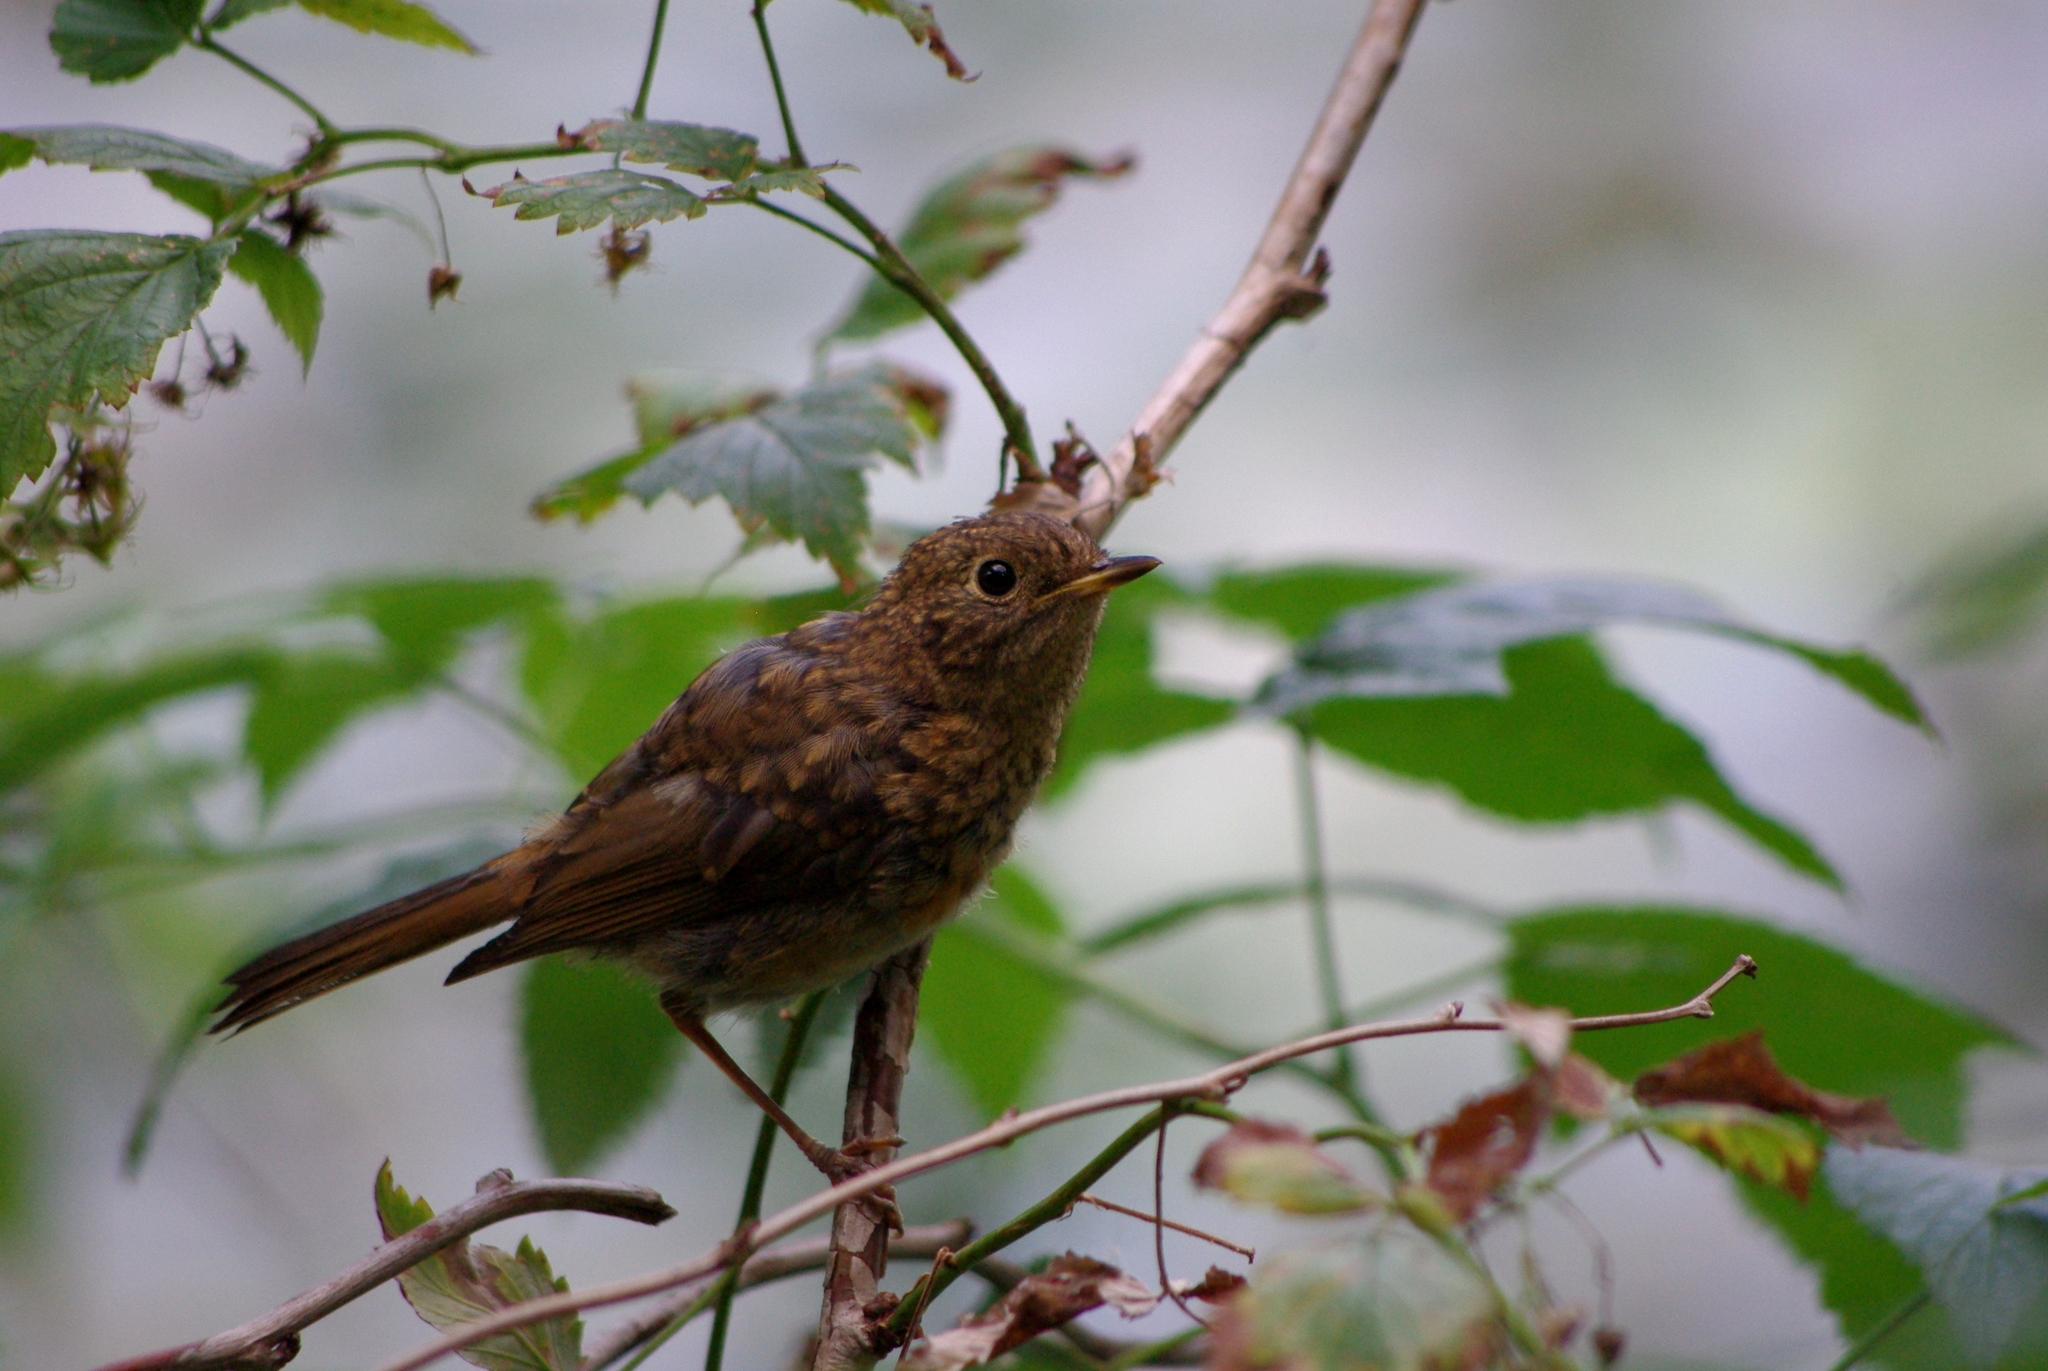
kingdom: Animalia
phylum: Chordata
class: Aves
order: Passeriformes
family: Muscicapidae
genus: Erithacus
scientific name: Erithacus rubecula
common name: European robin
